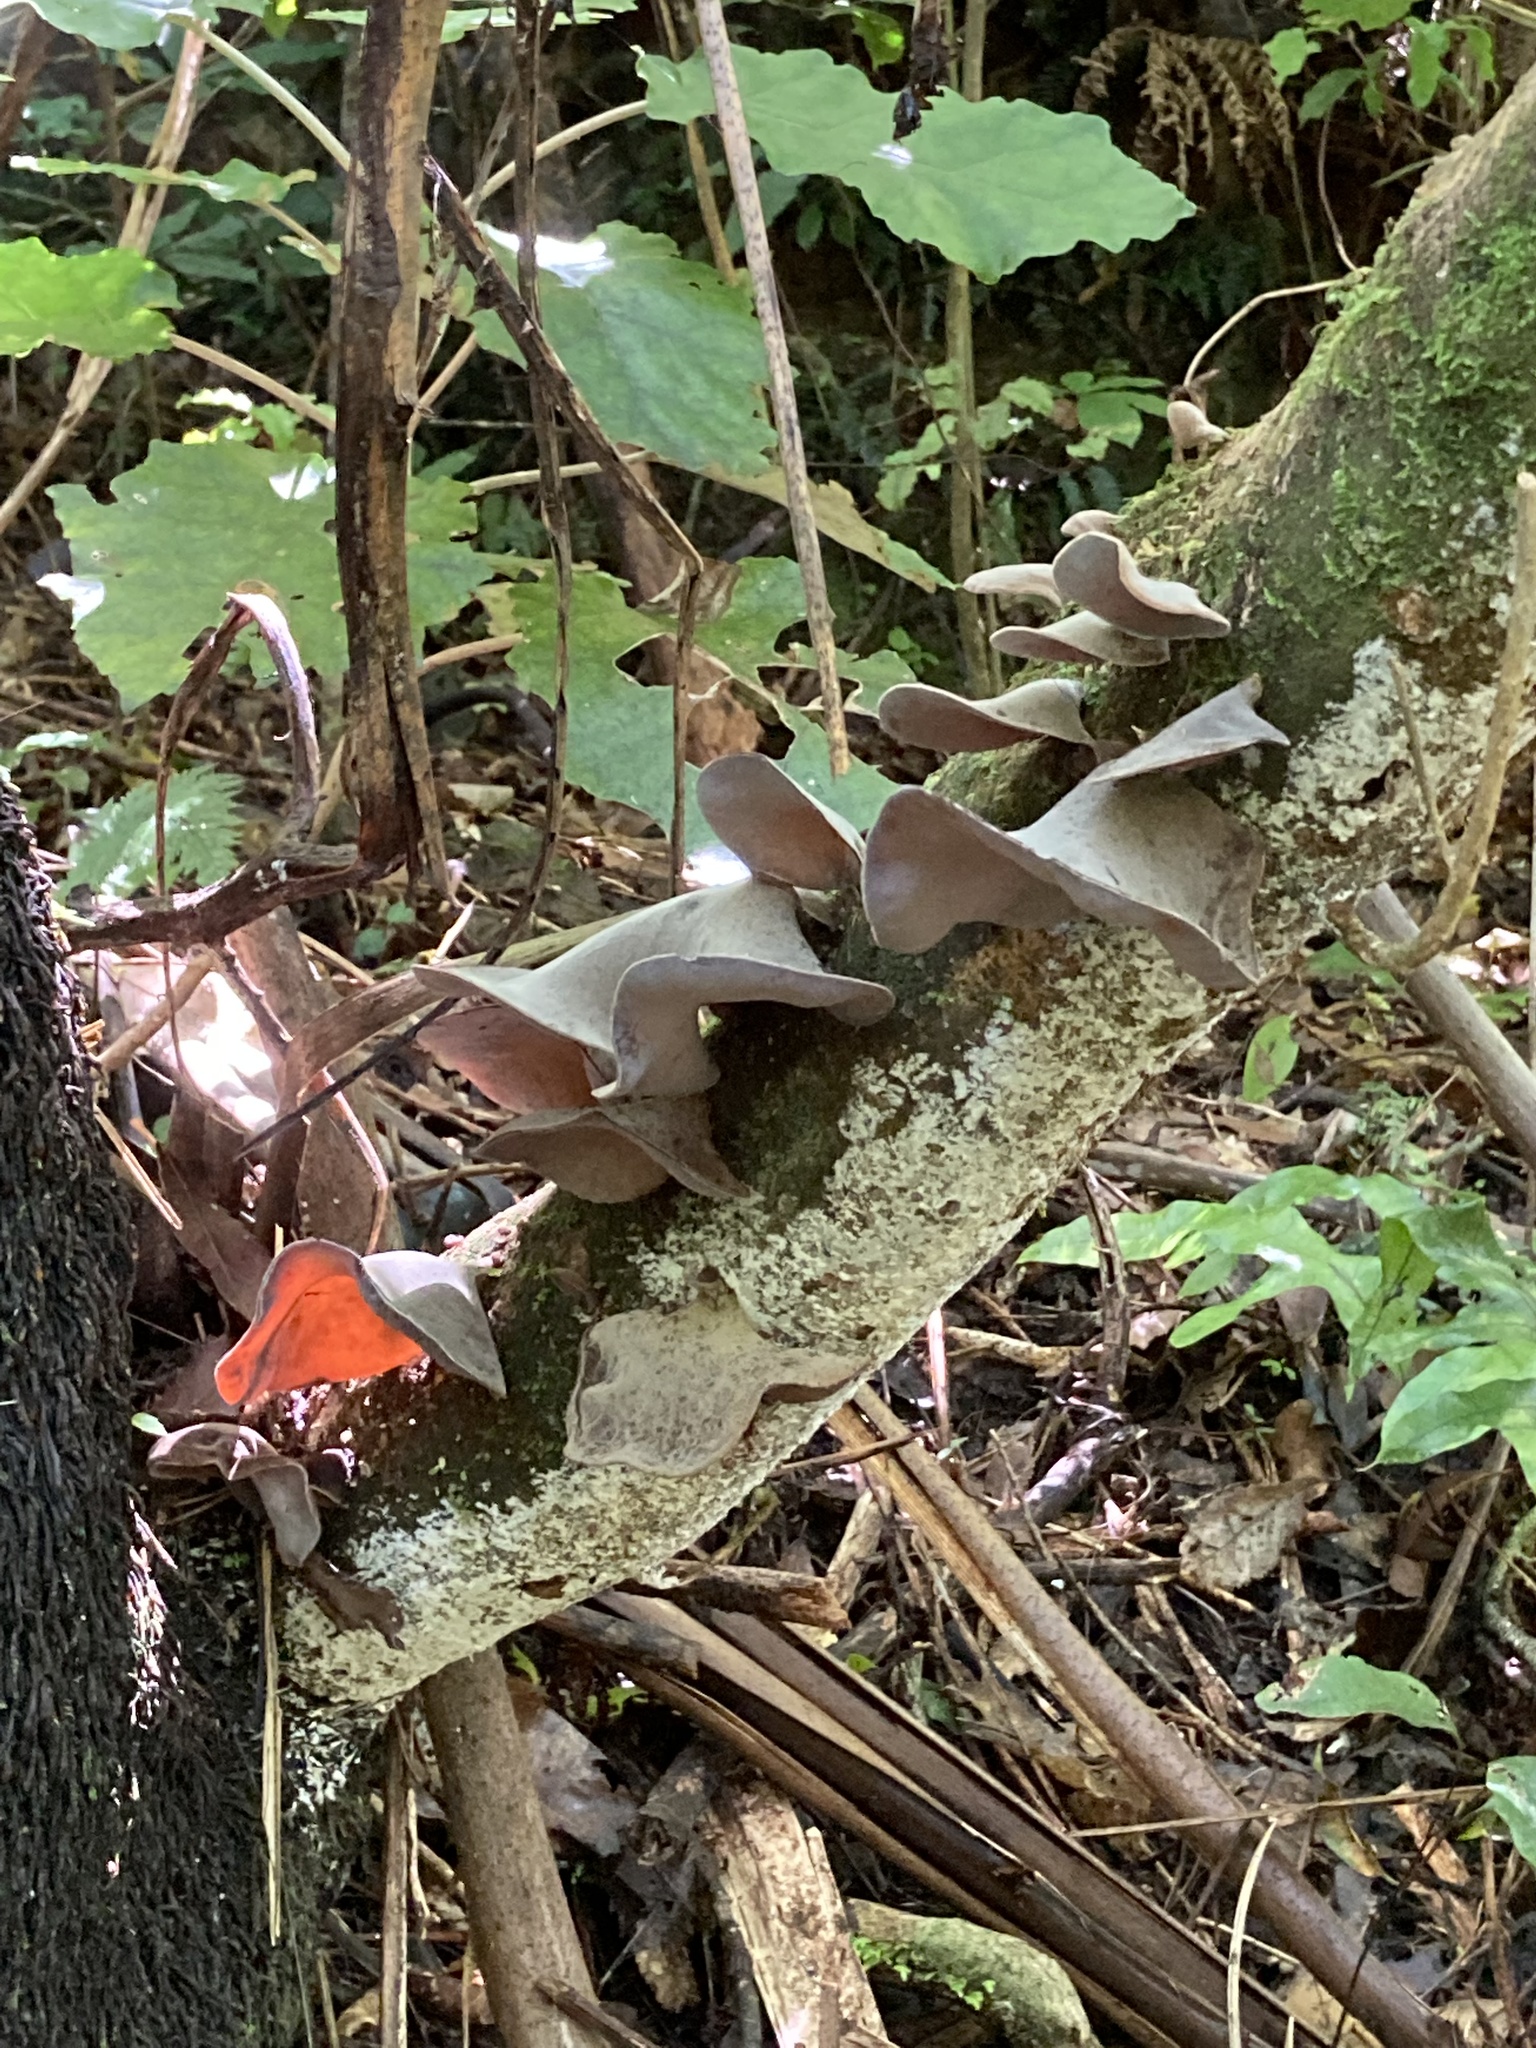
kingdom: Fungi
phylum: Basidiomycota
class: Agaricomycetes
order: Auriculariales
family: Auriculariaceae
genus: Auricularia
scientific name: Auricularia cornea
